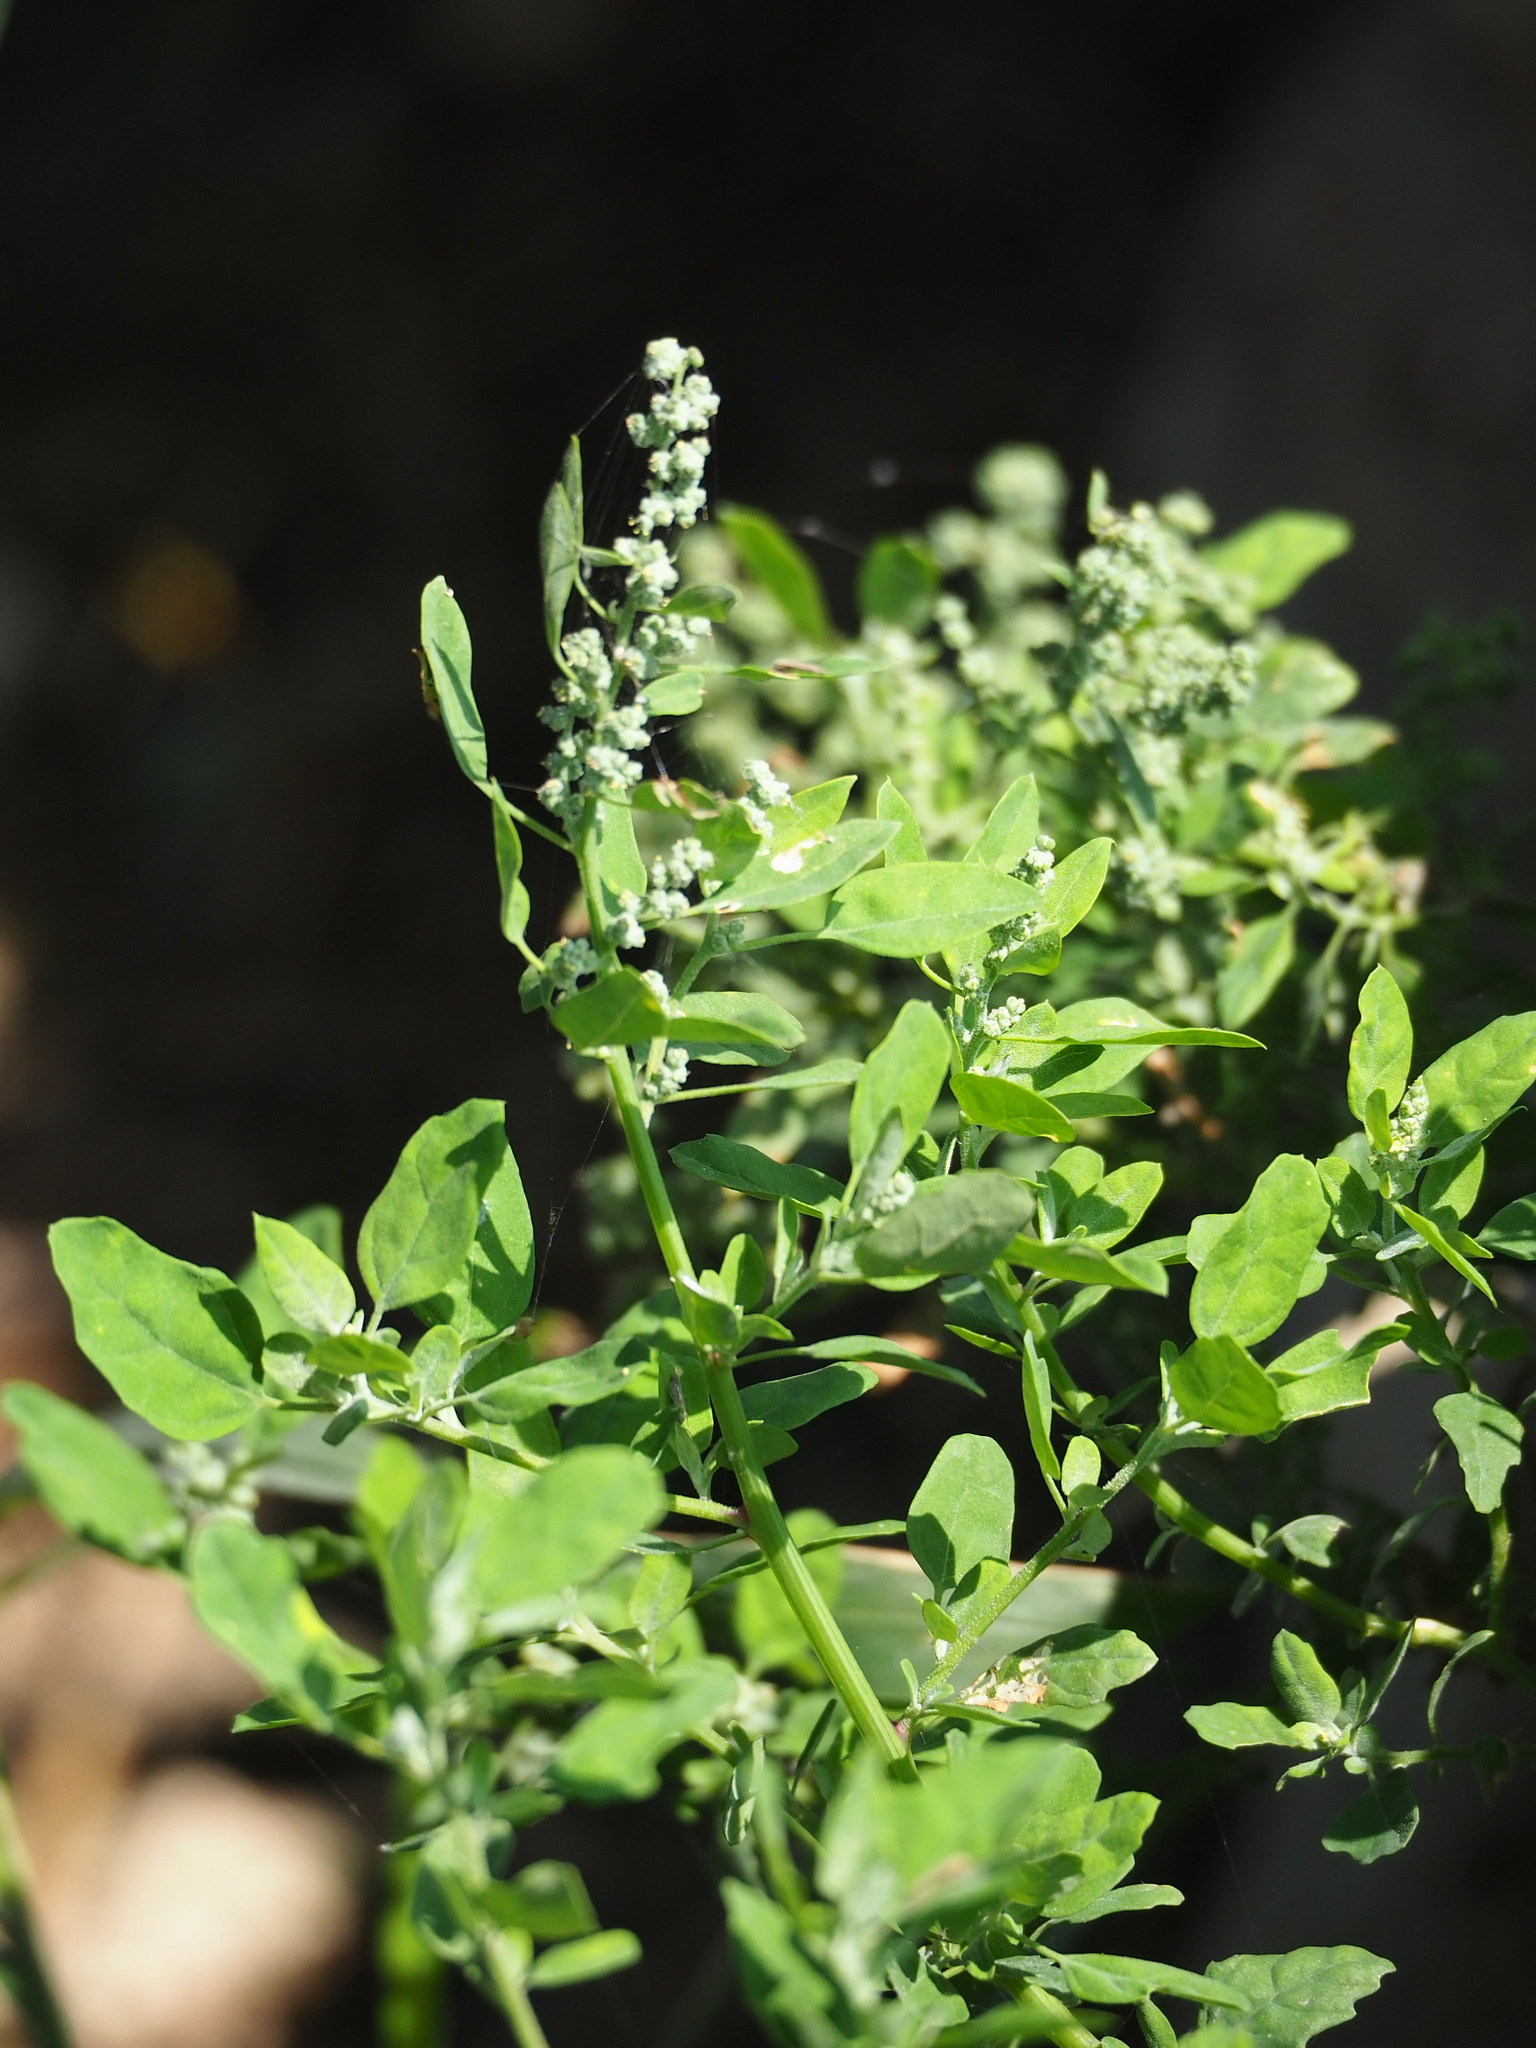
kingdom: Plantae
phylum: Tracheophyta
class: Magnoliopsida
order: Caryophyllales
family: Amaranthaceae
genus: Chenopodium
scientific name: Chenopodium ficifolium
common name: Fig-leaved goosefoot
